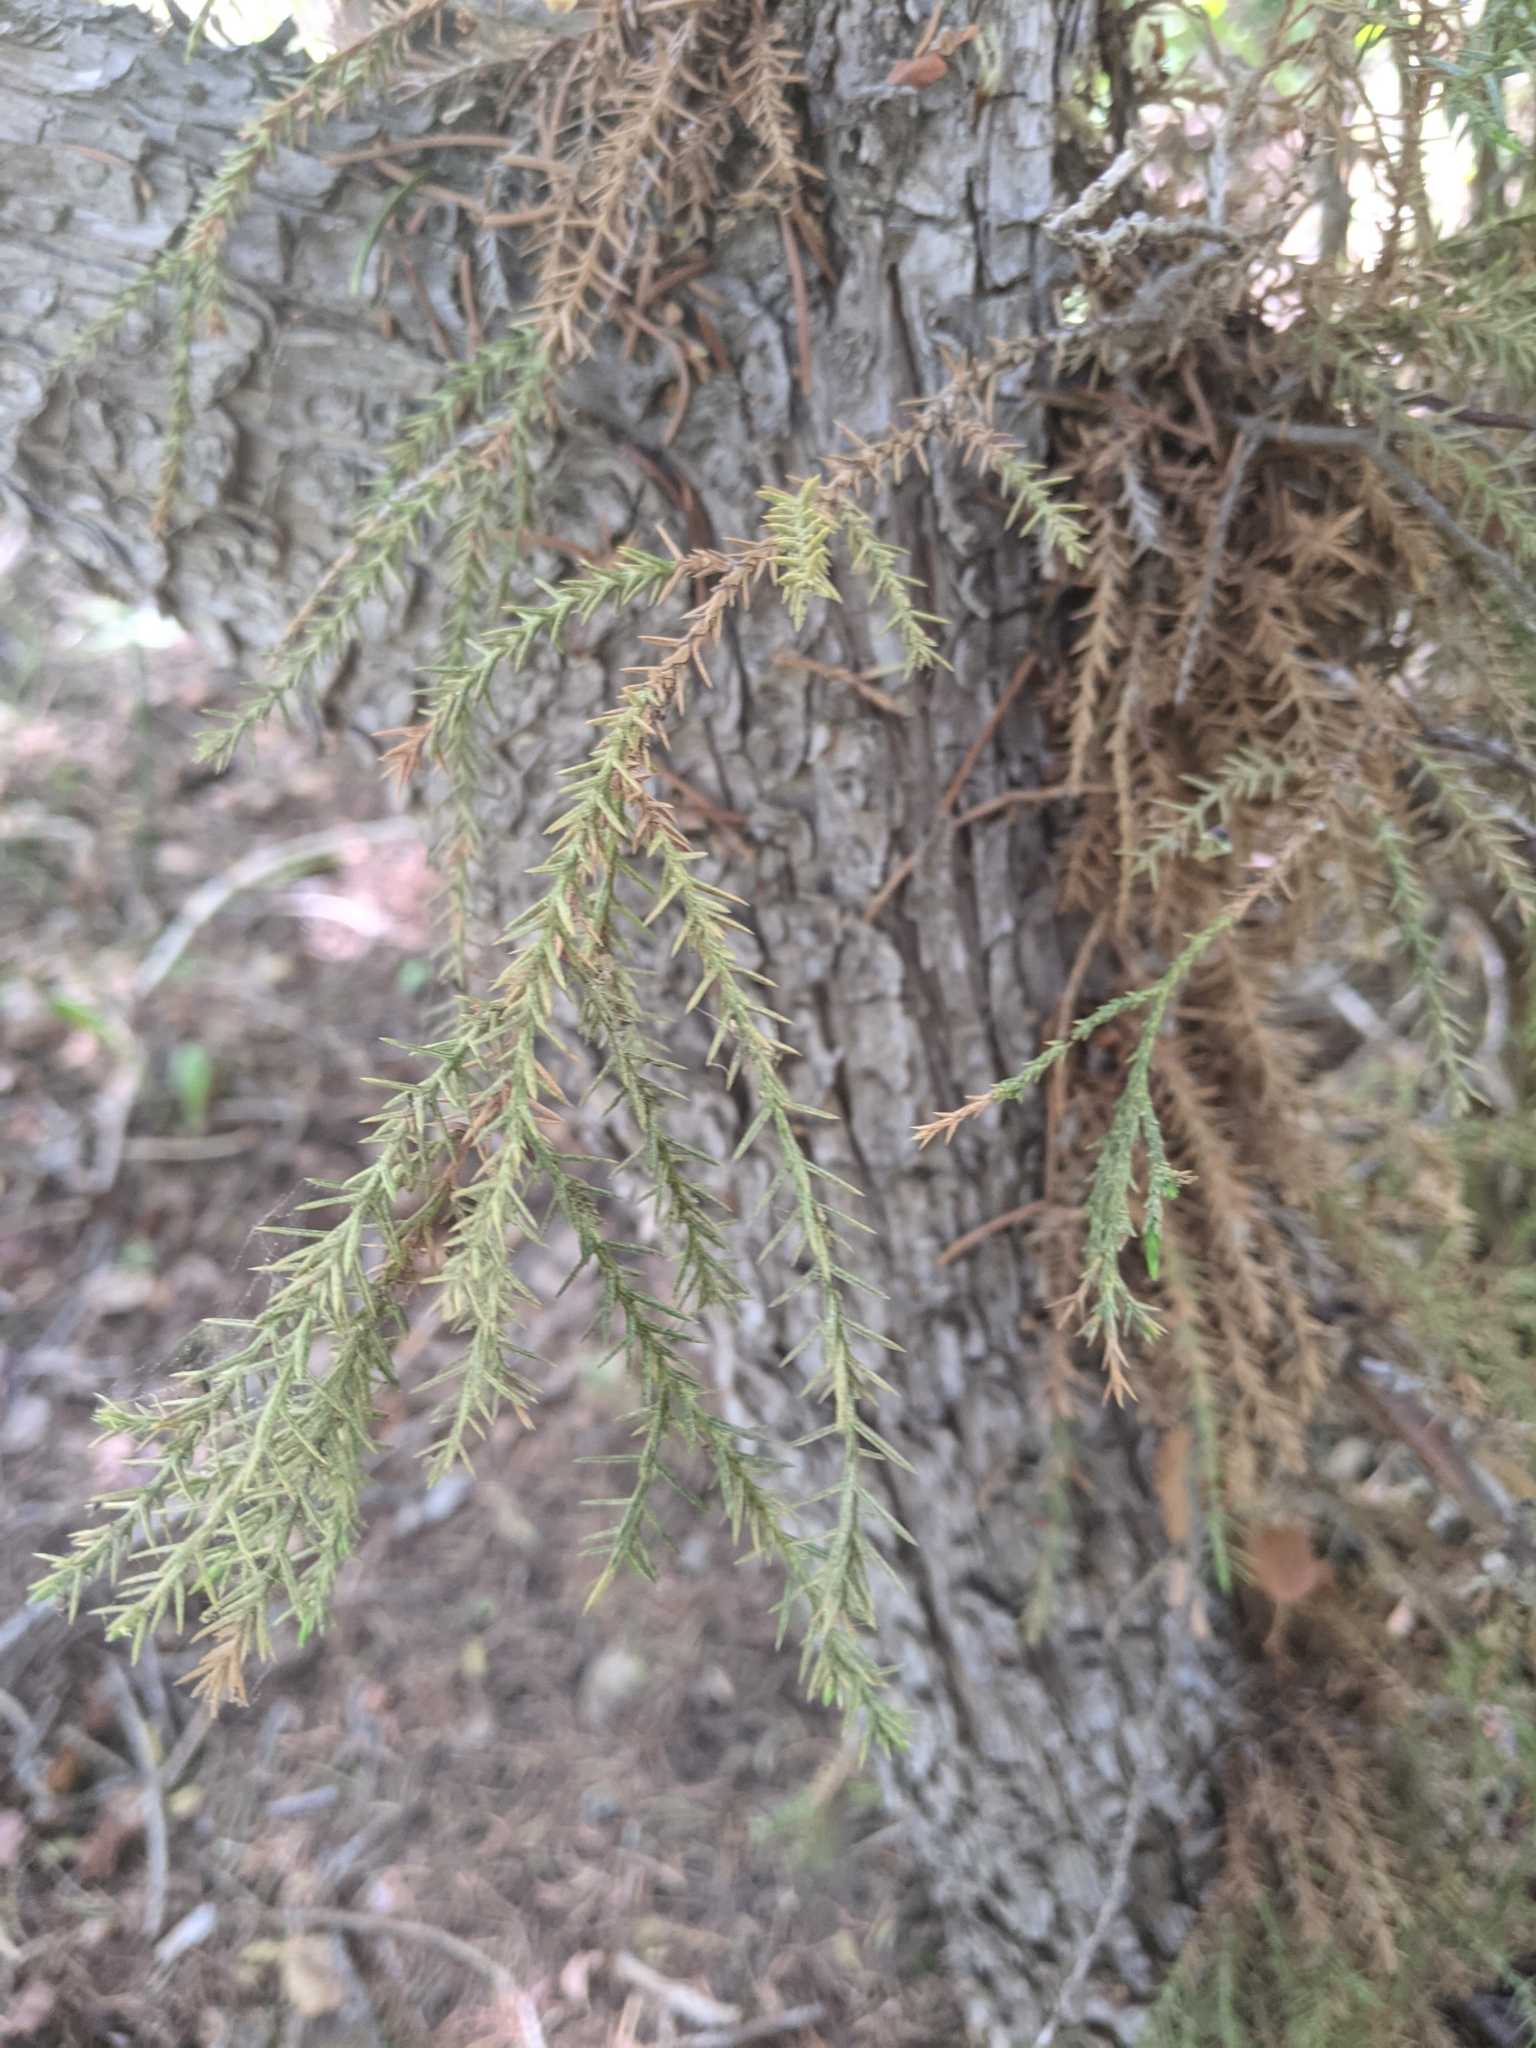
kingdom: Plantae
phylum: Tracheophyta
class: Pinopsida
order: Pinales
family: Cupressaceae
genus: Juniperus
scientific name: Juniperus scopulorum
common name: Rocky mountain juniper
